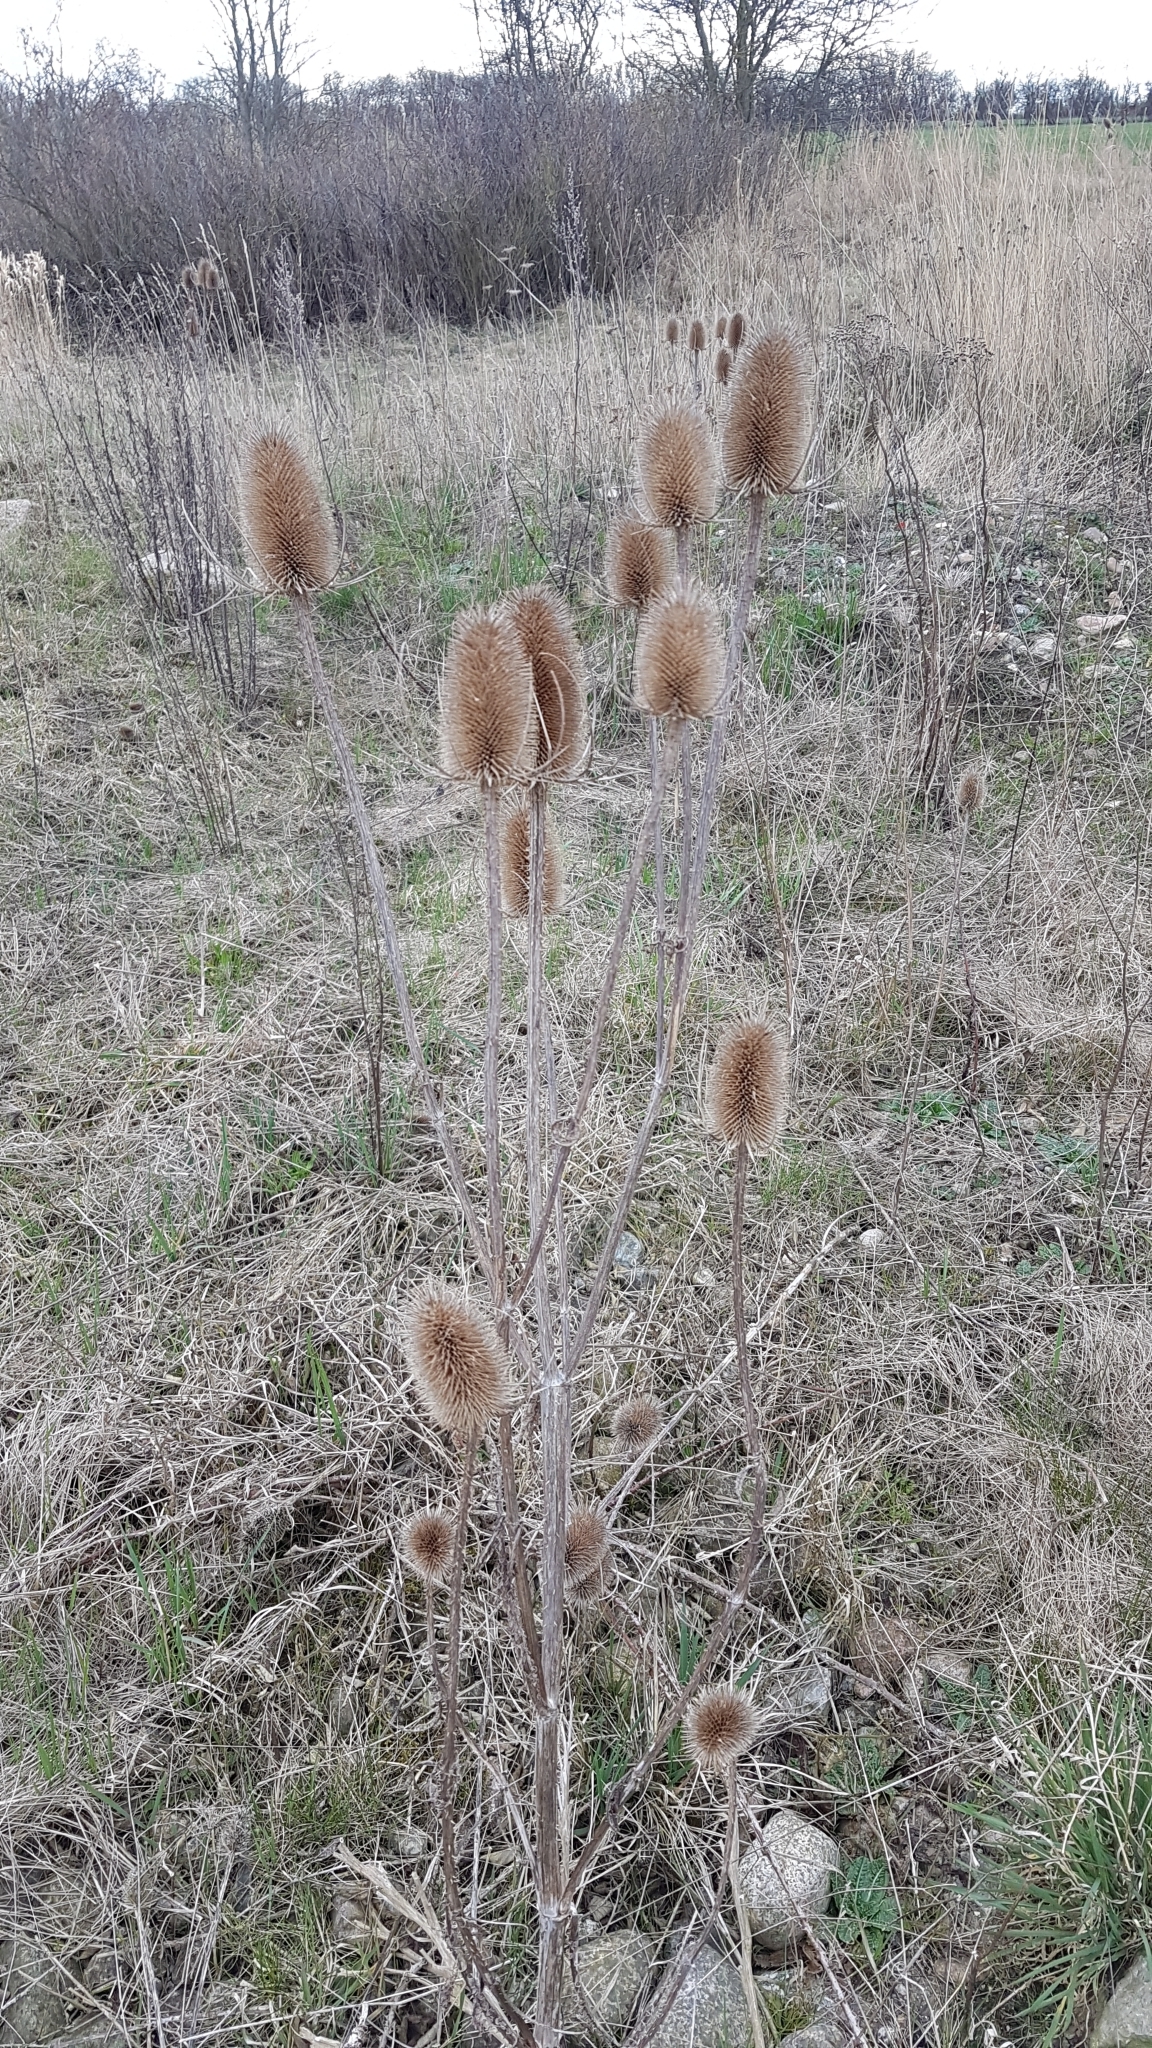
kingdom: Plantae
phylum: Tracheophyta
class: Magnoliopsida
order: Dipsacales
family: Caprifoliaceae
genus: Dipsacus
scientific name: Dipsacus fullonum
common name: Teasel
